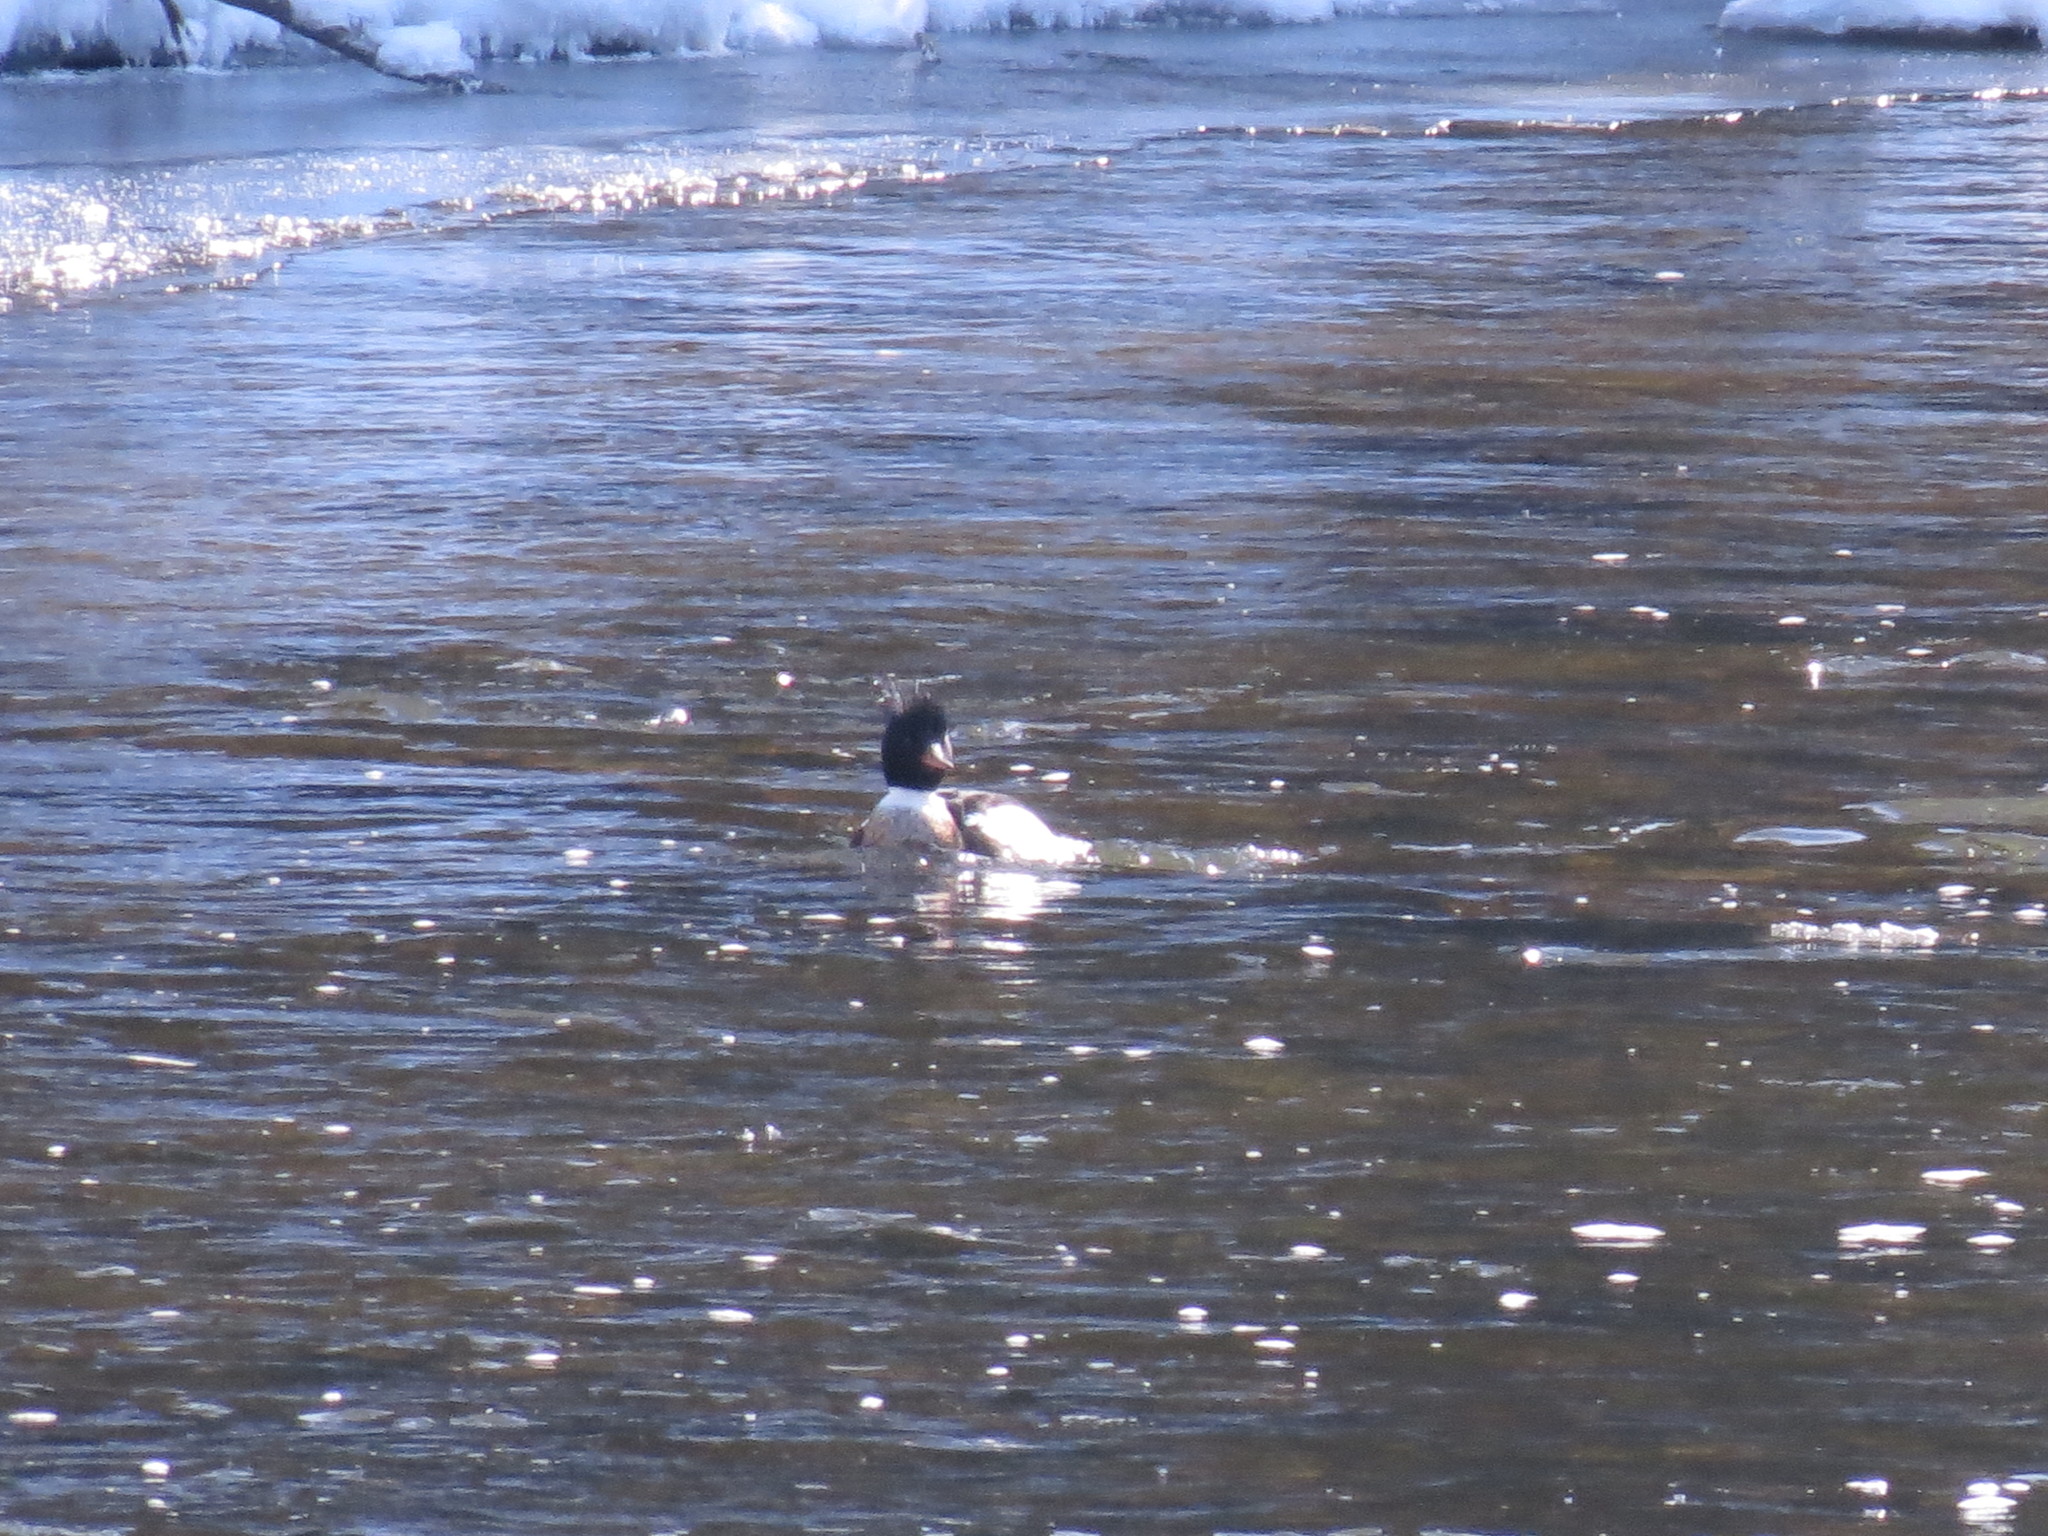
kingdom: Animalia
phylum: Chordata
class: Aves
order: Anseriformes
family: Anatidae
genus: Mergus
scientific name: Mergus serrator
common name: Red-breasted merganser
